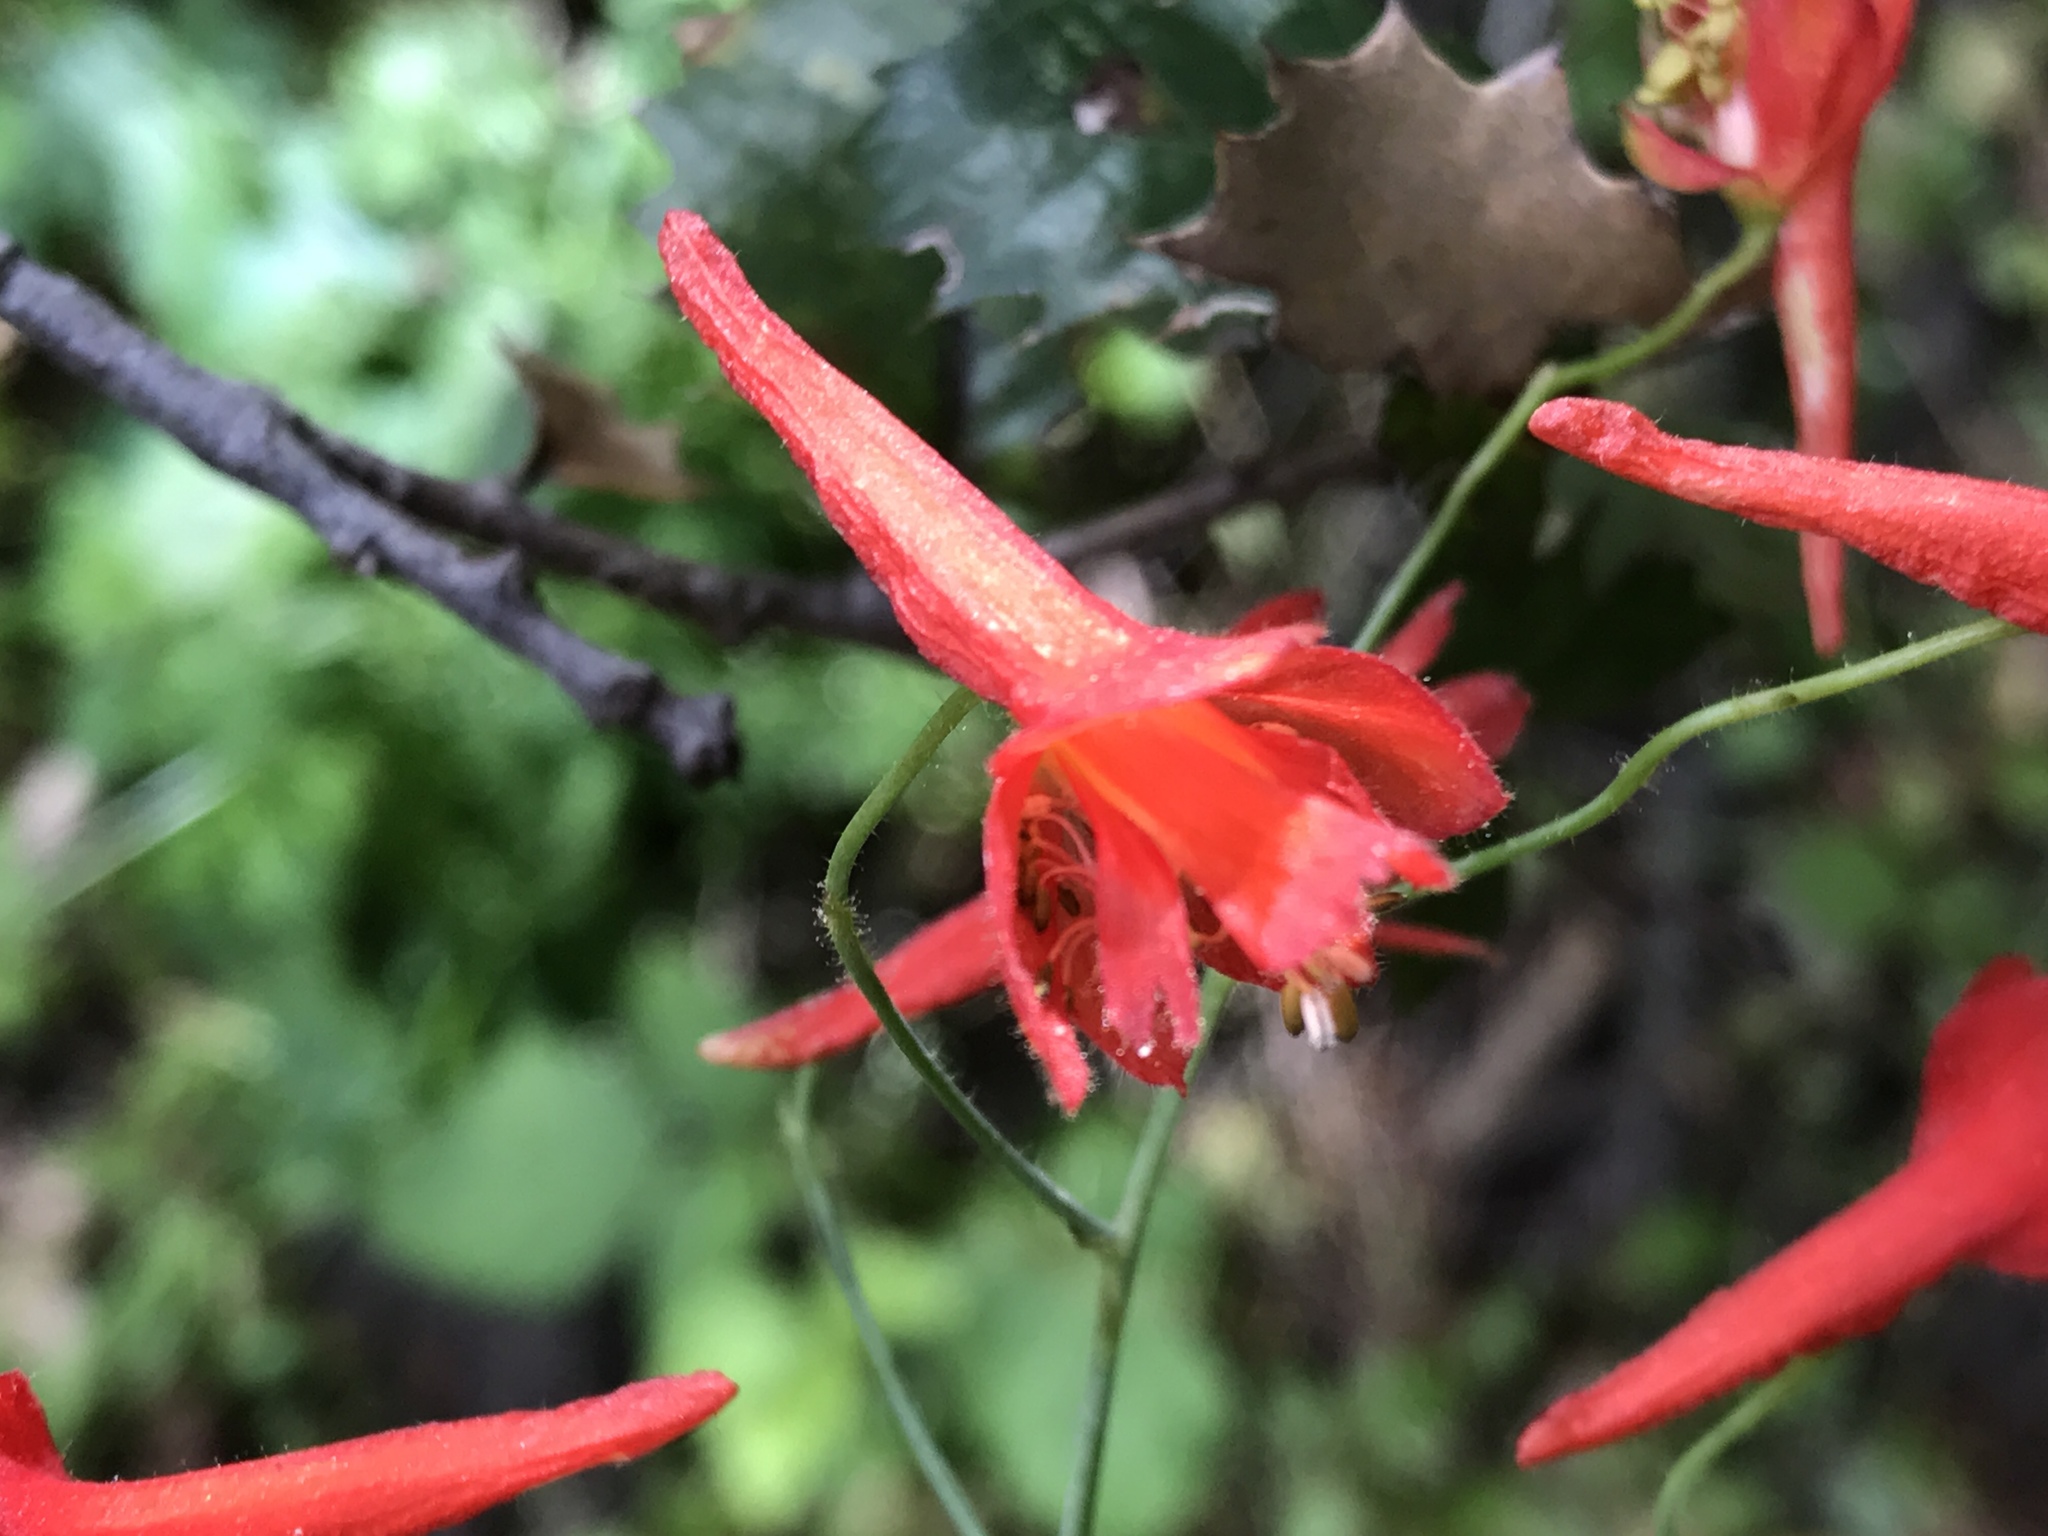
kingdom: Plantae
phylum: Tracheophyta
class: Magnoliopsida
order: Ranunculales
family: Ranunculaceae
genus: Delphinium
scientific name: Delphinium nudicaule
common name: Red larkspur
